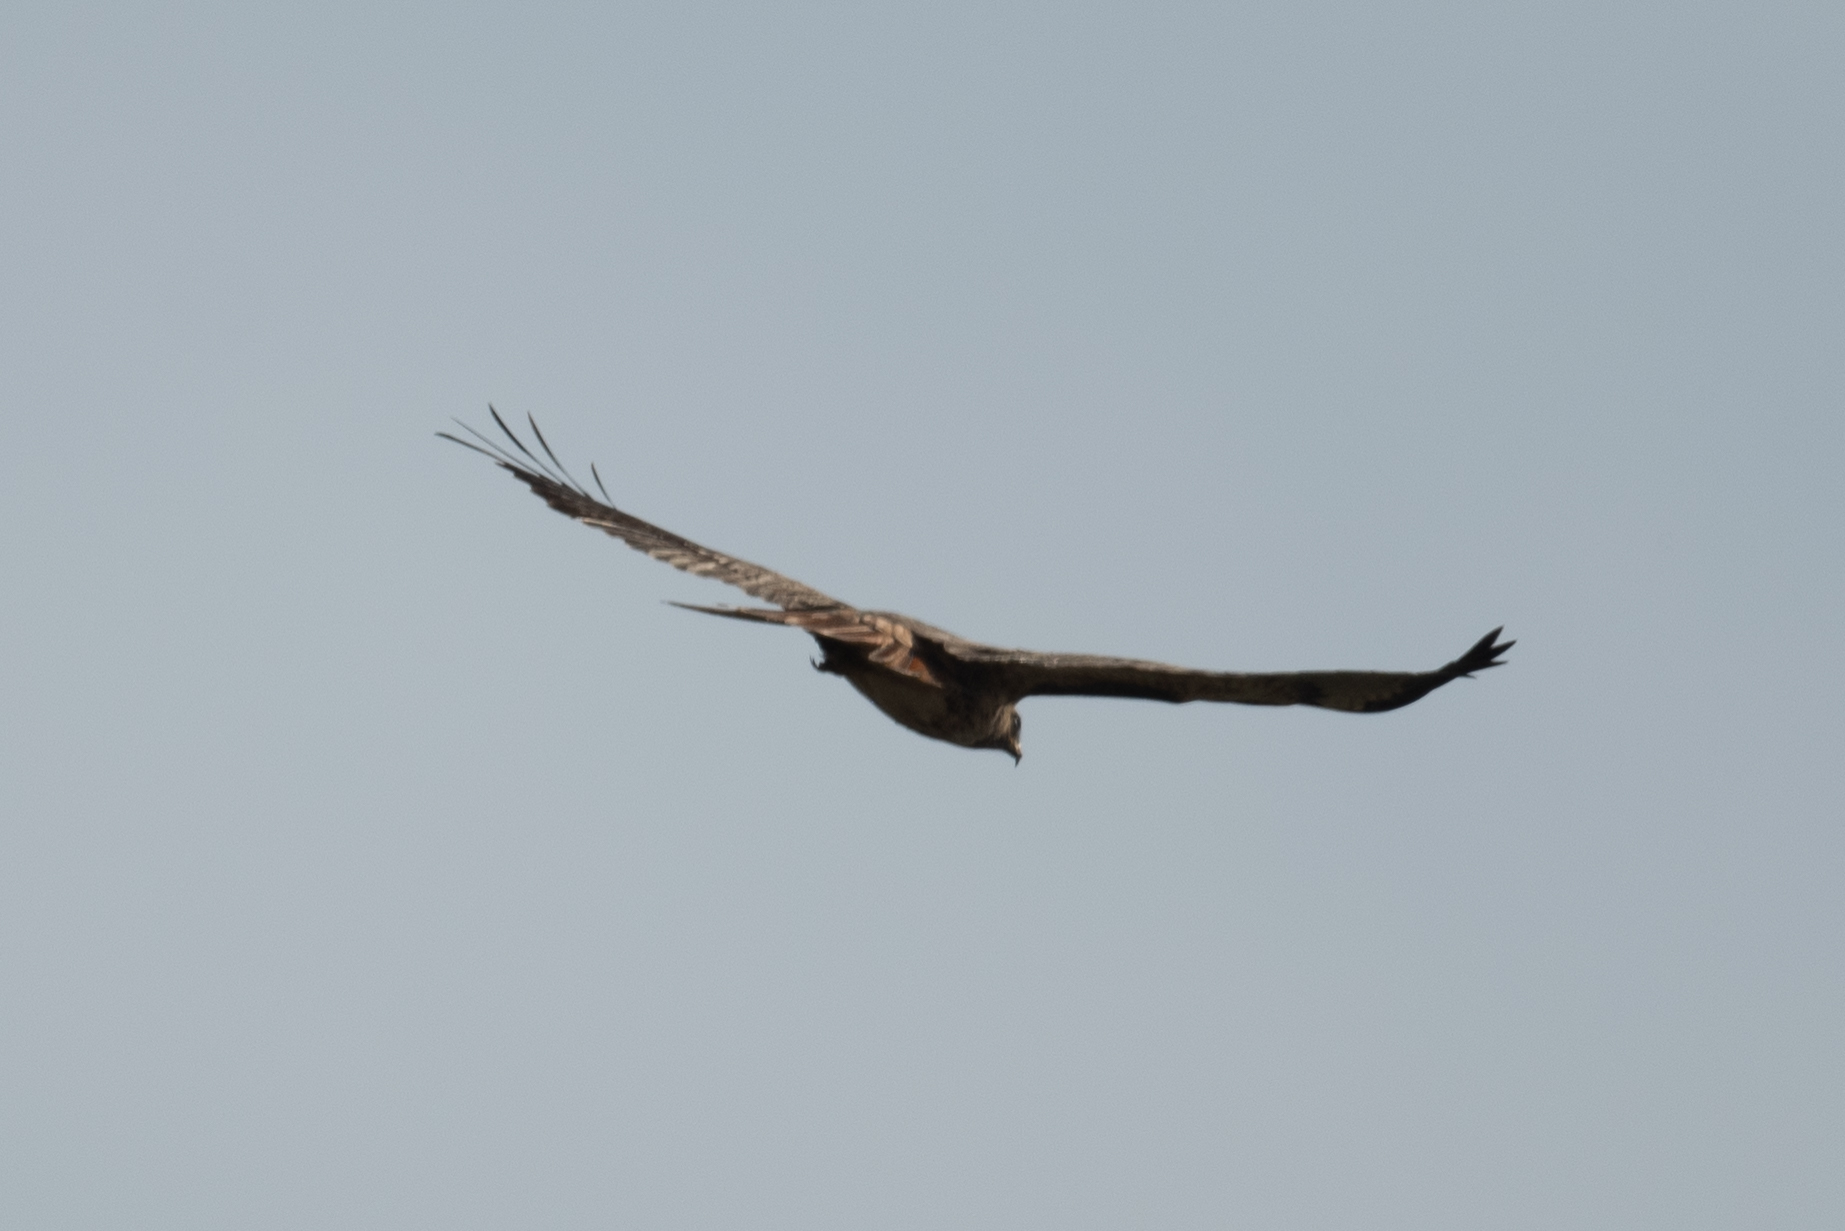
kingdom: Animalia
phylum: Chordata
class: Aves
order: Accipitriformes
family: Accipitridae
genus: Buteo
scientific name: Buteo jamaicensis
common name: Red-tailed hawk
